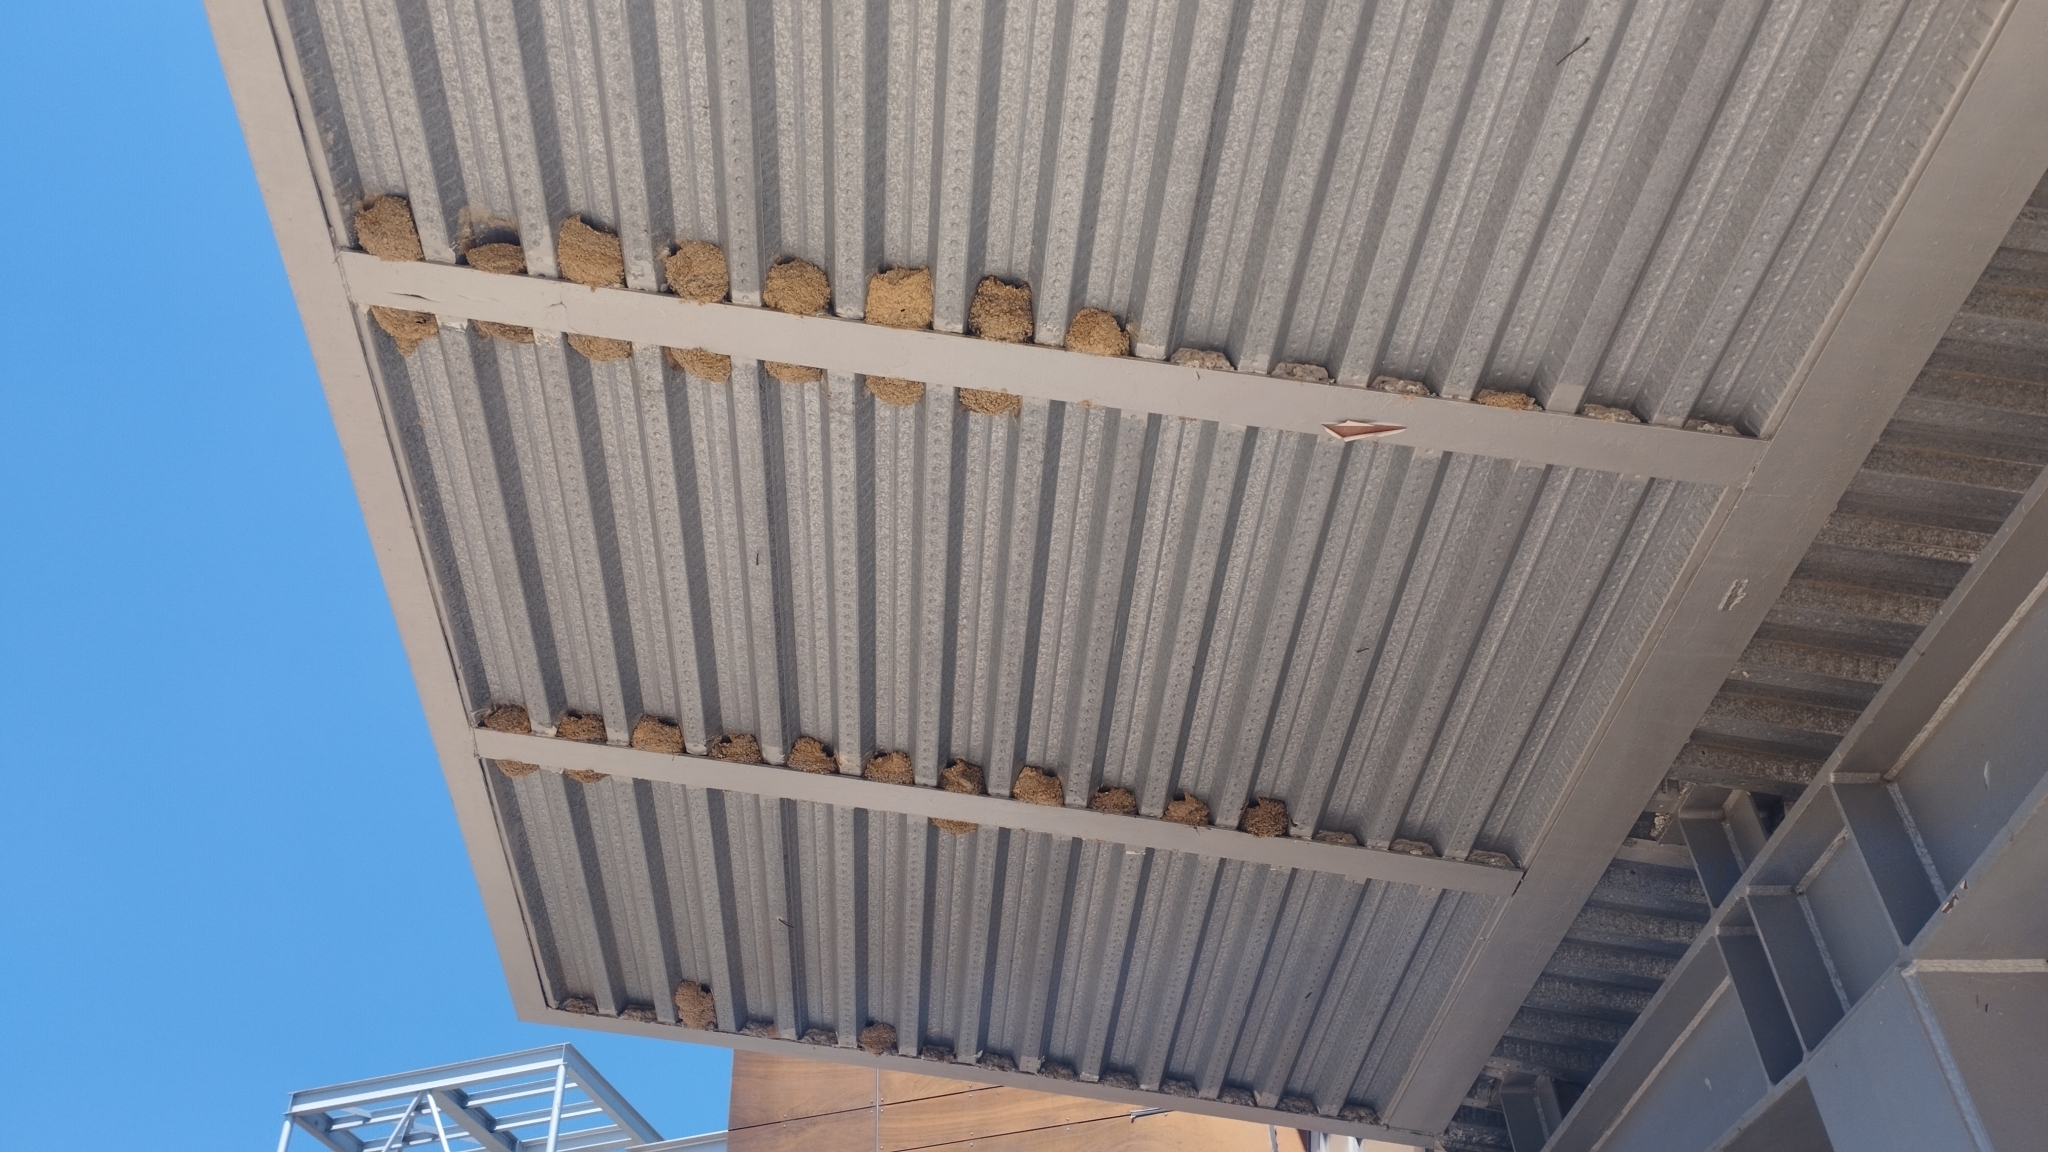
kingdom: Animalia
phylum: Chordata
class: Aves
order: Passeriformes
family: Hirundinidae
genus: Delichon
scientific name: Delichon urbicum
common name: Common house martin
